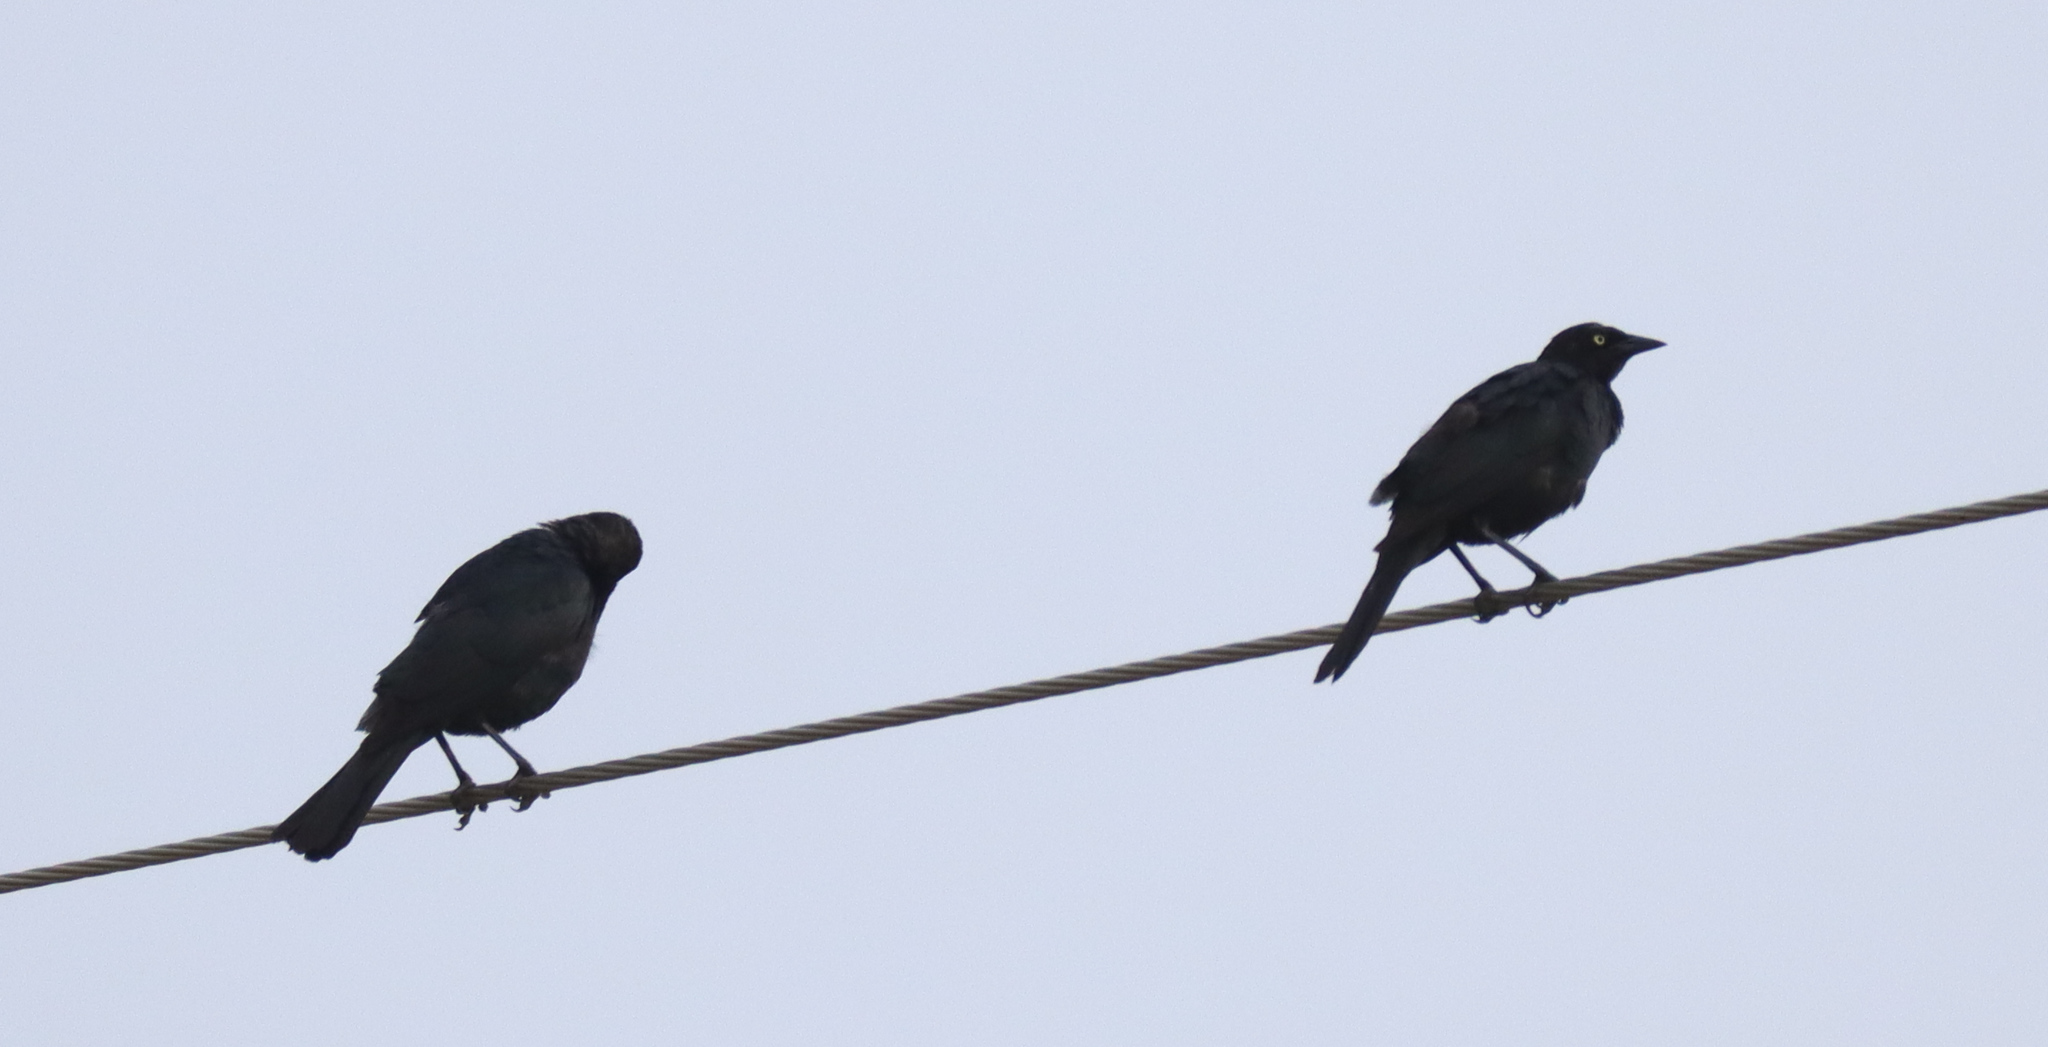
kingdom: Animalia
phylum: Chordata
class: Aves
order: Passeriformes
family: Icteridae
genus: Quiscalus
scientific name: Quiscalus quiscula
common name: Common grackle
